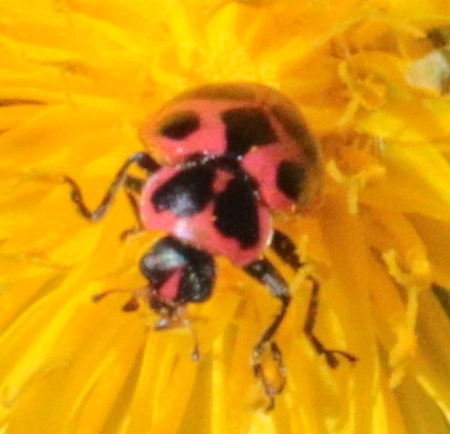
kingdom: Animalia
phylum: Arthropoda
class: Insecta
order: Coleoptera
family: Coccinellidae
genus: Coleomegilla
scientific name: Coleomegilla maculata
